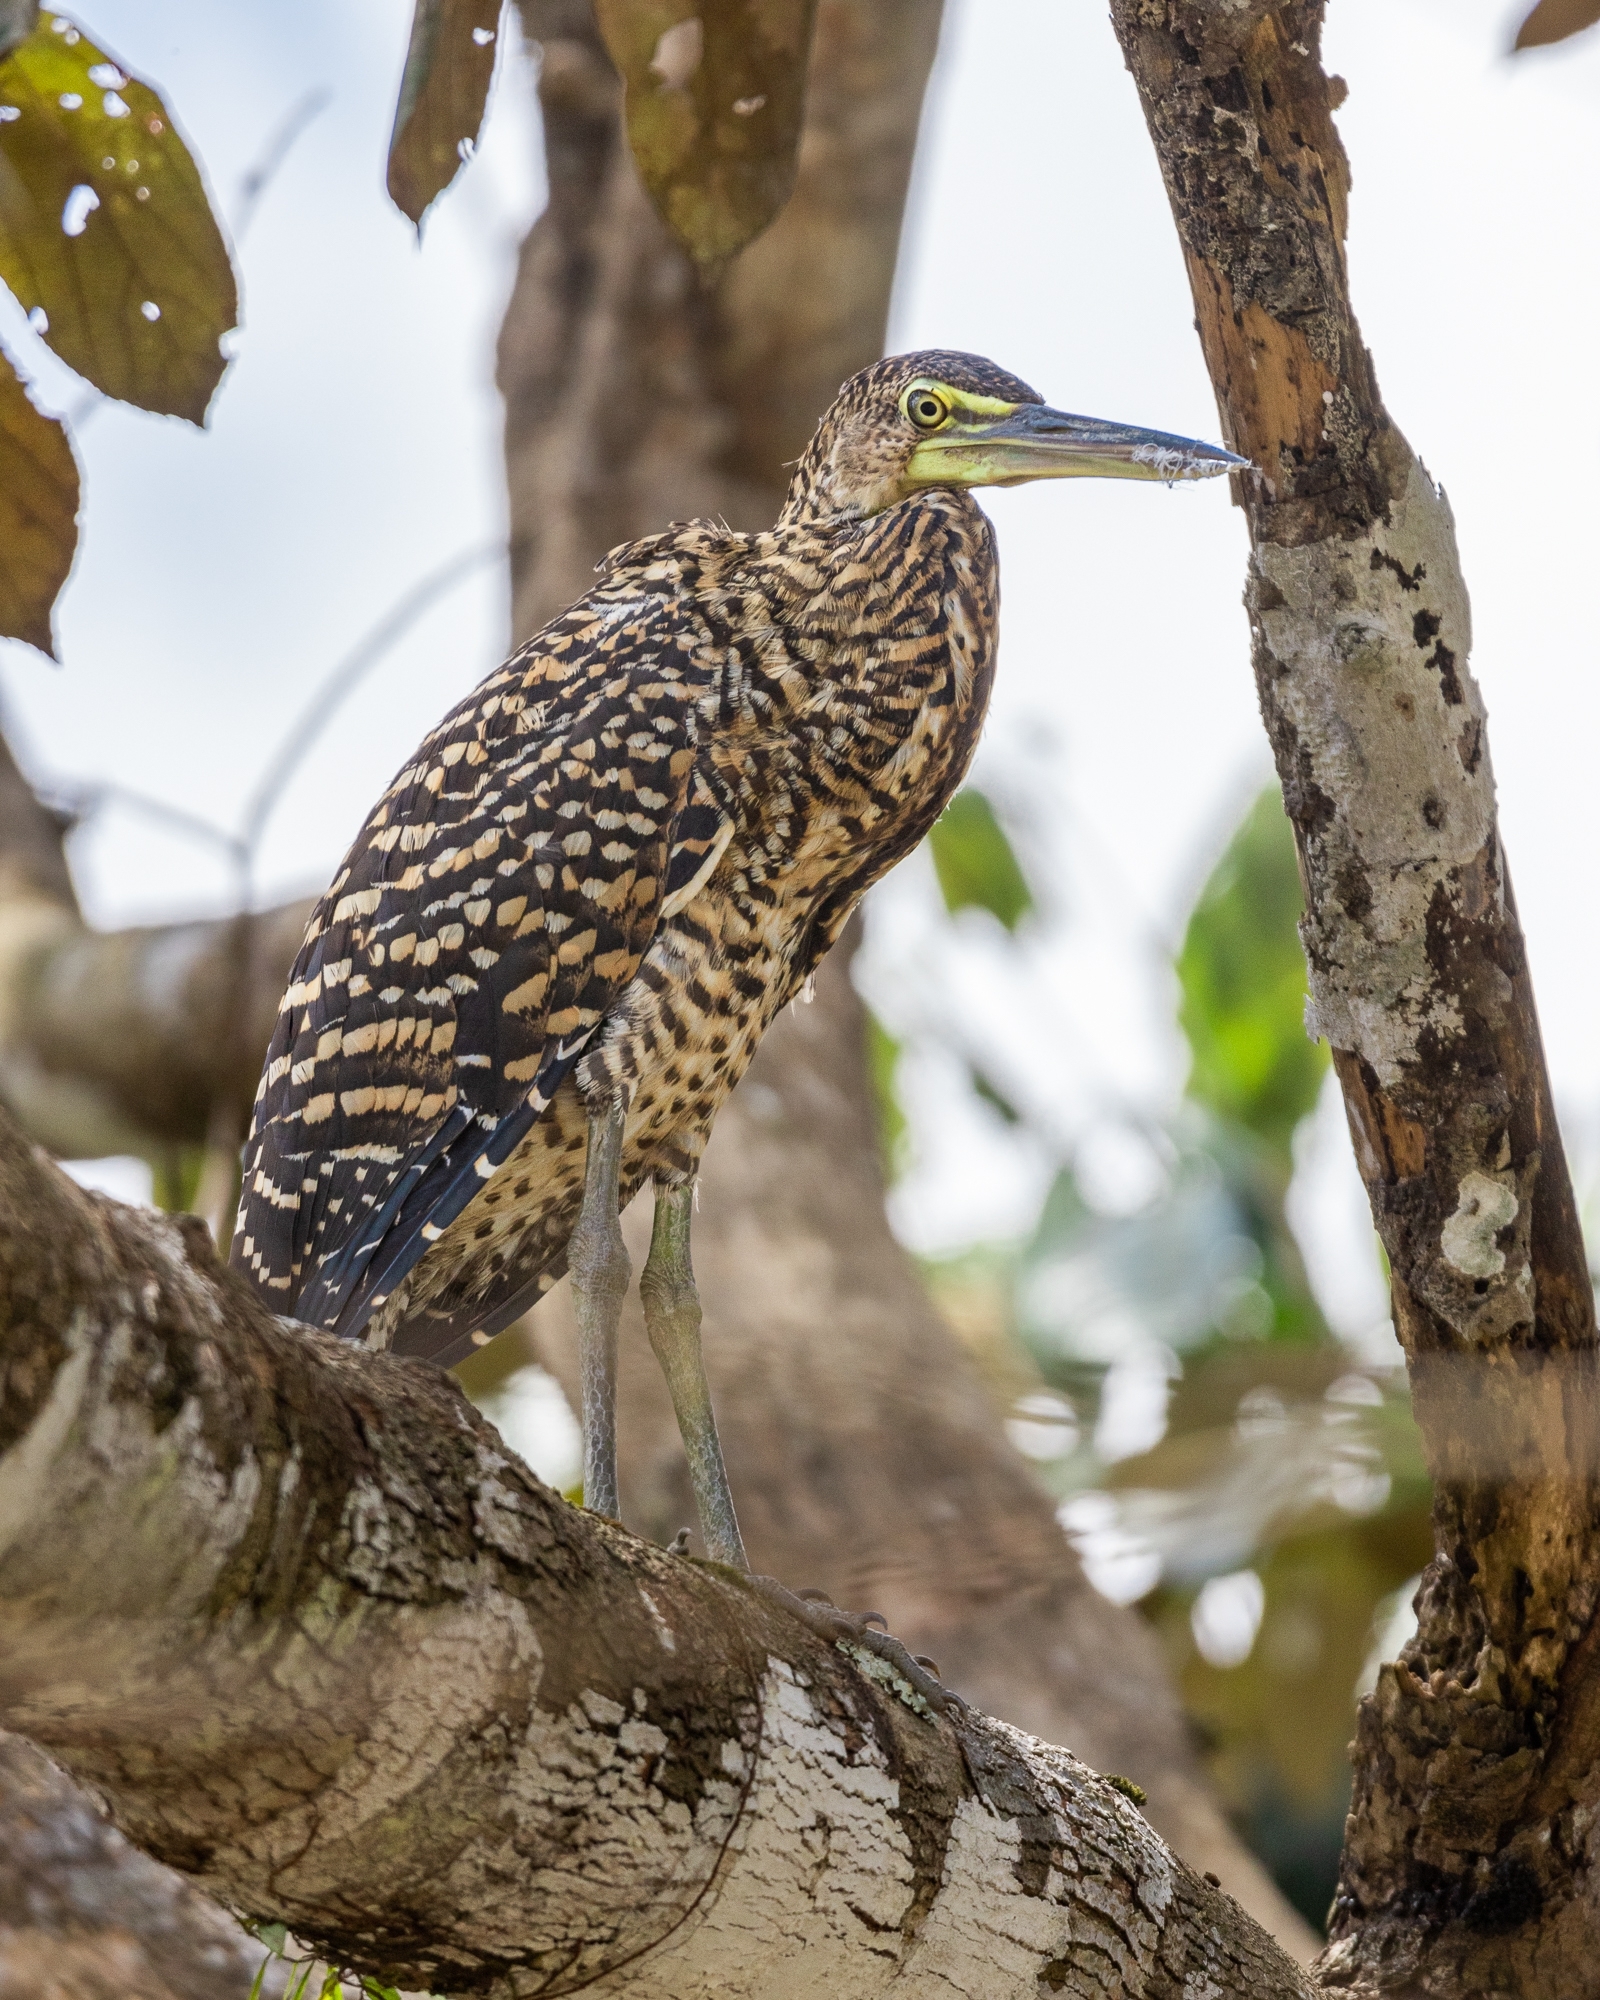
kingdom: Animalia
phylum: Chordata
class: Aves
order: Pelecaniformes
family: Ardeidae
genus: Tigrisoma
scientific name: Tigrisoma mexicanum
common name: Bare-throated tiger-heron
